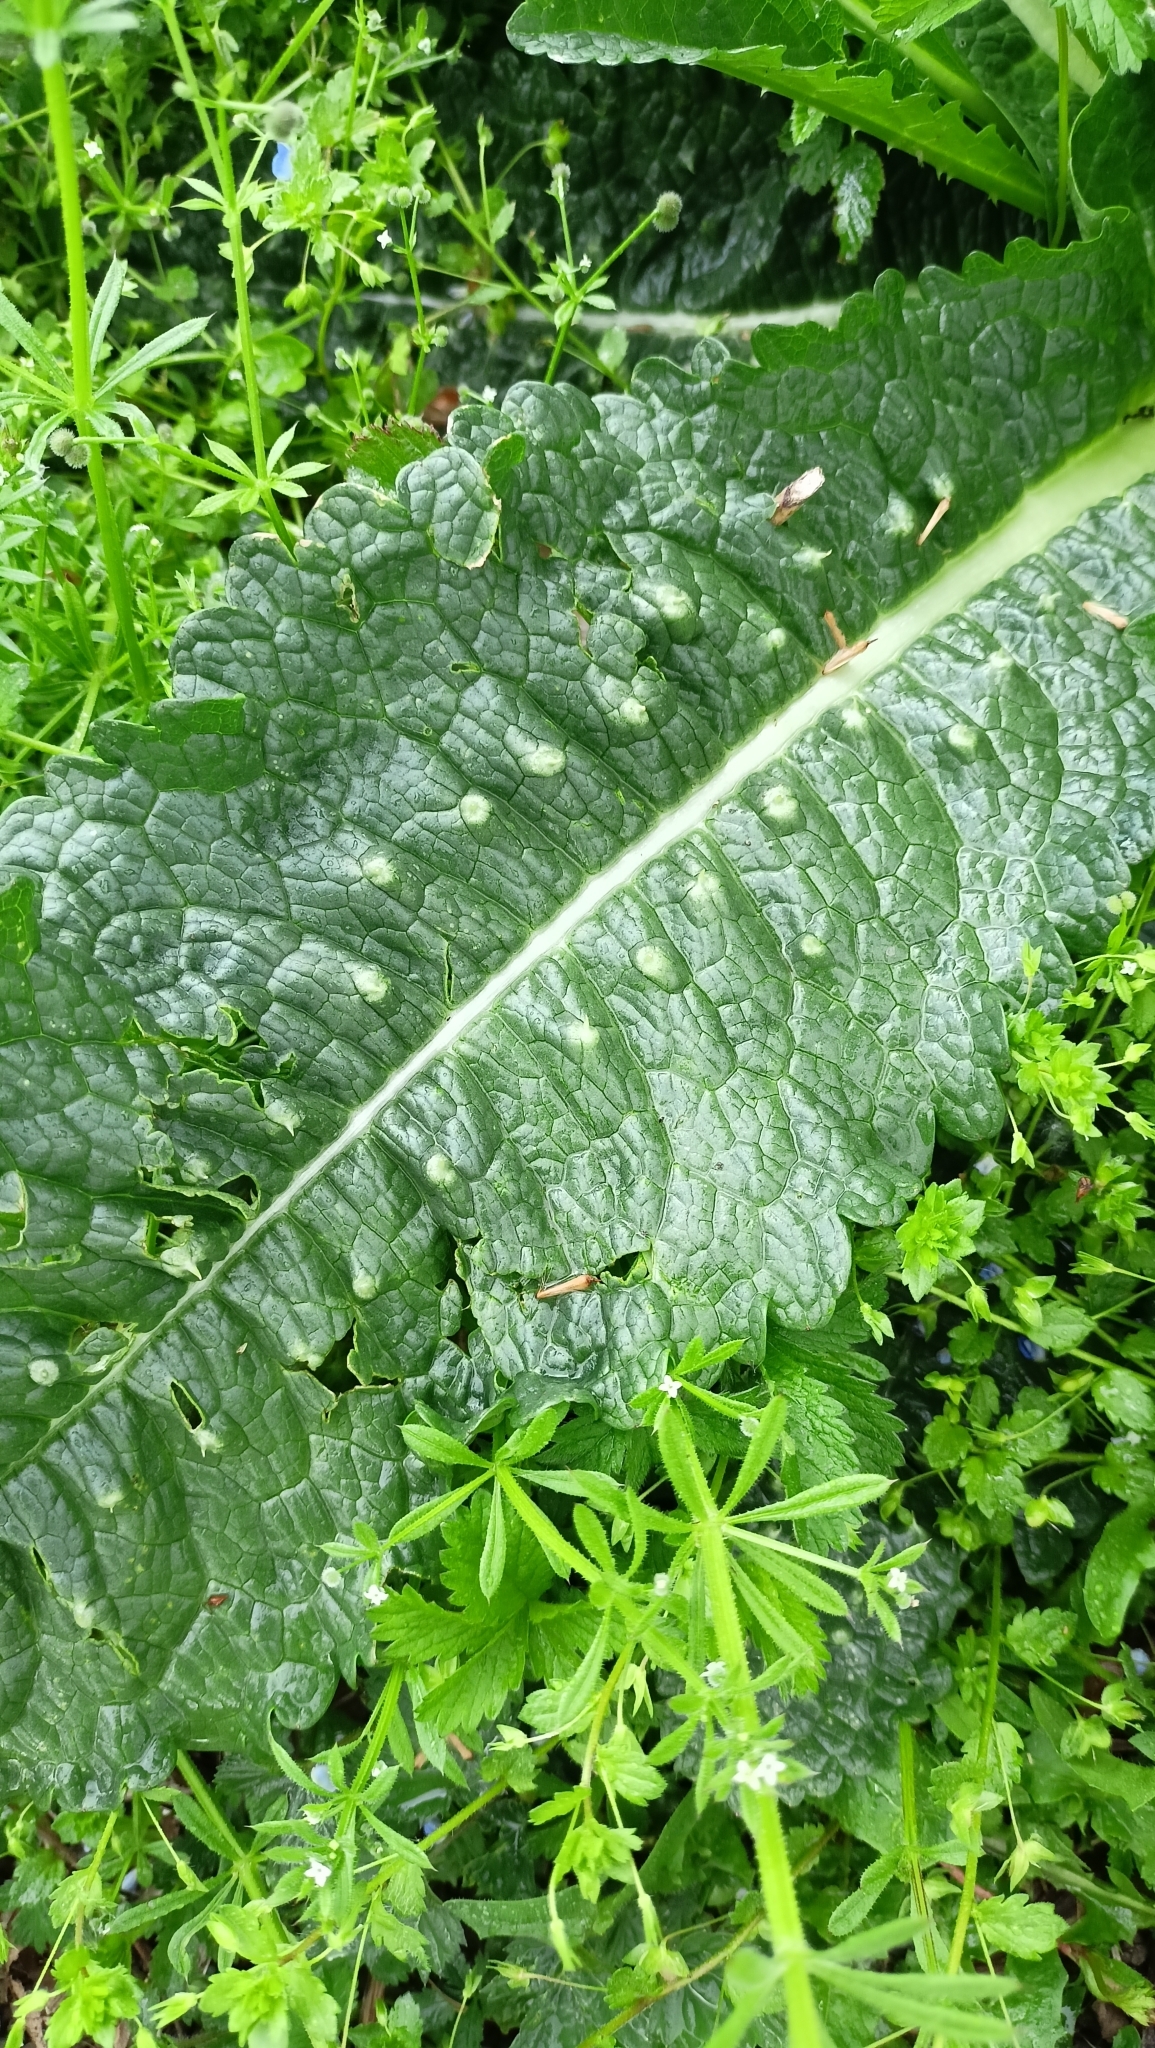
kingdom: Plantae
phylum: Tracheophyta
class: Magnoliopsida
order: Dipsacales
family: Caprifoliaceae
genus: Dipsacus
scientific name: Dipsacus fullonum
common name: Teasel
